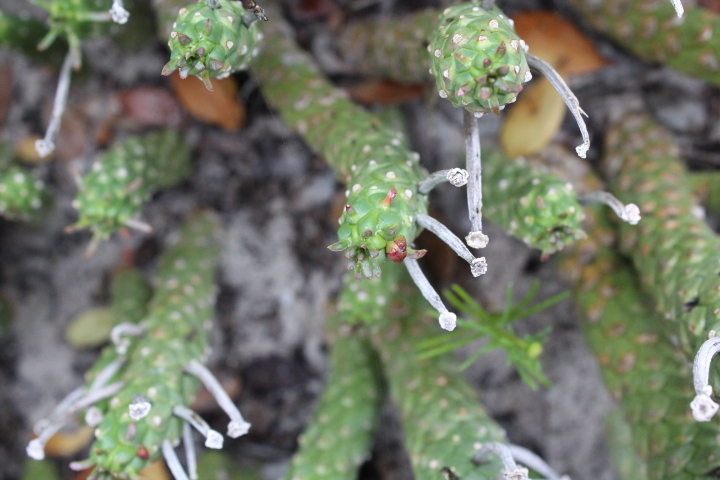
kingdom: Plantae
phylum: Tracheophyta
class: Magnoliopsida
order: Malpighiales
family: Euphorbiaceae
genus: Euphorbia
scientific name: Euphorbia caput-medusae
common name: Medusa's-head
